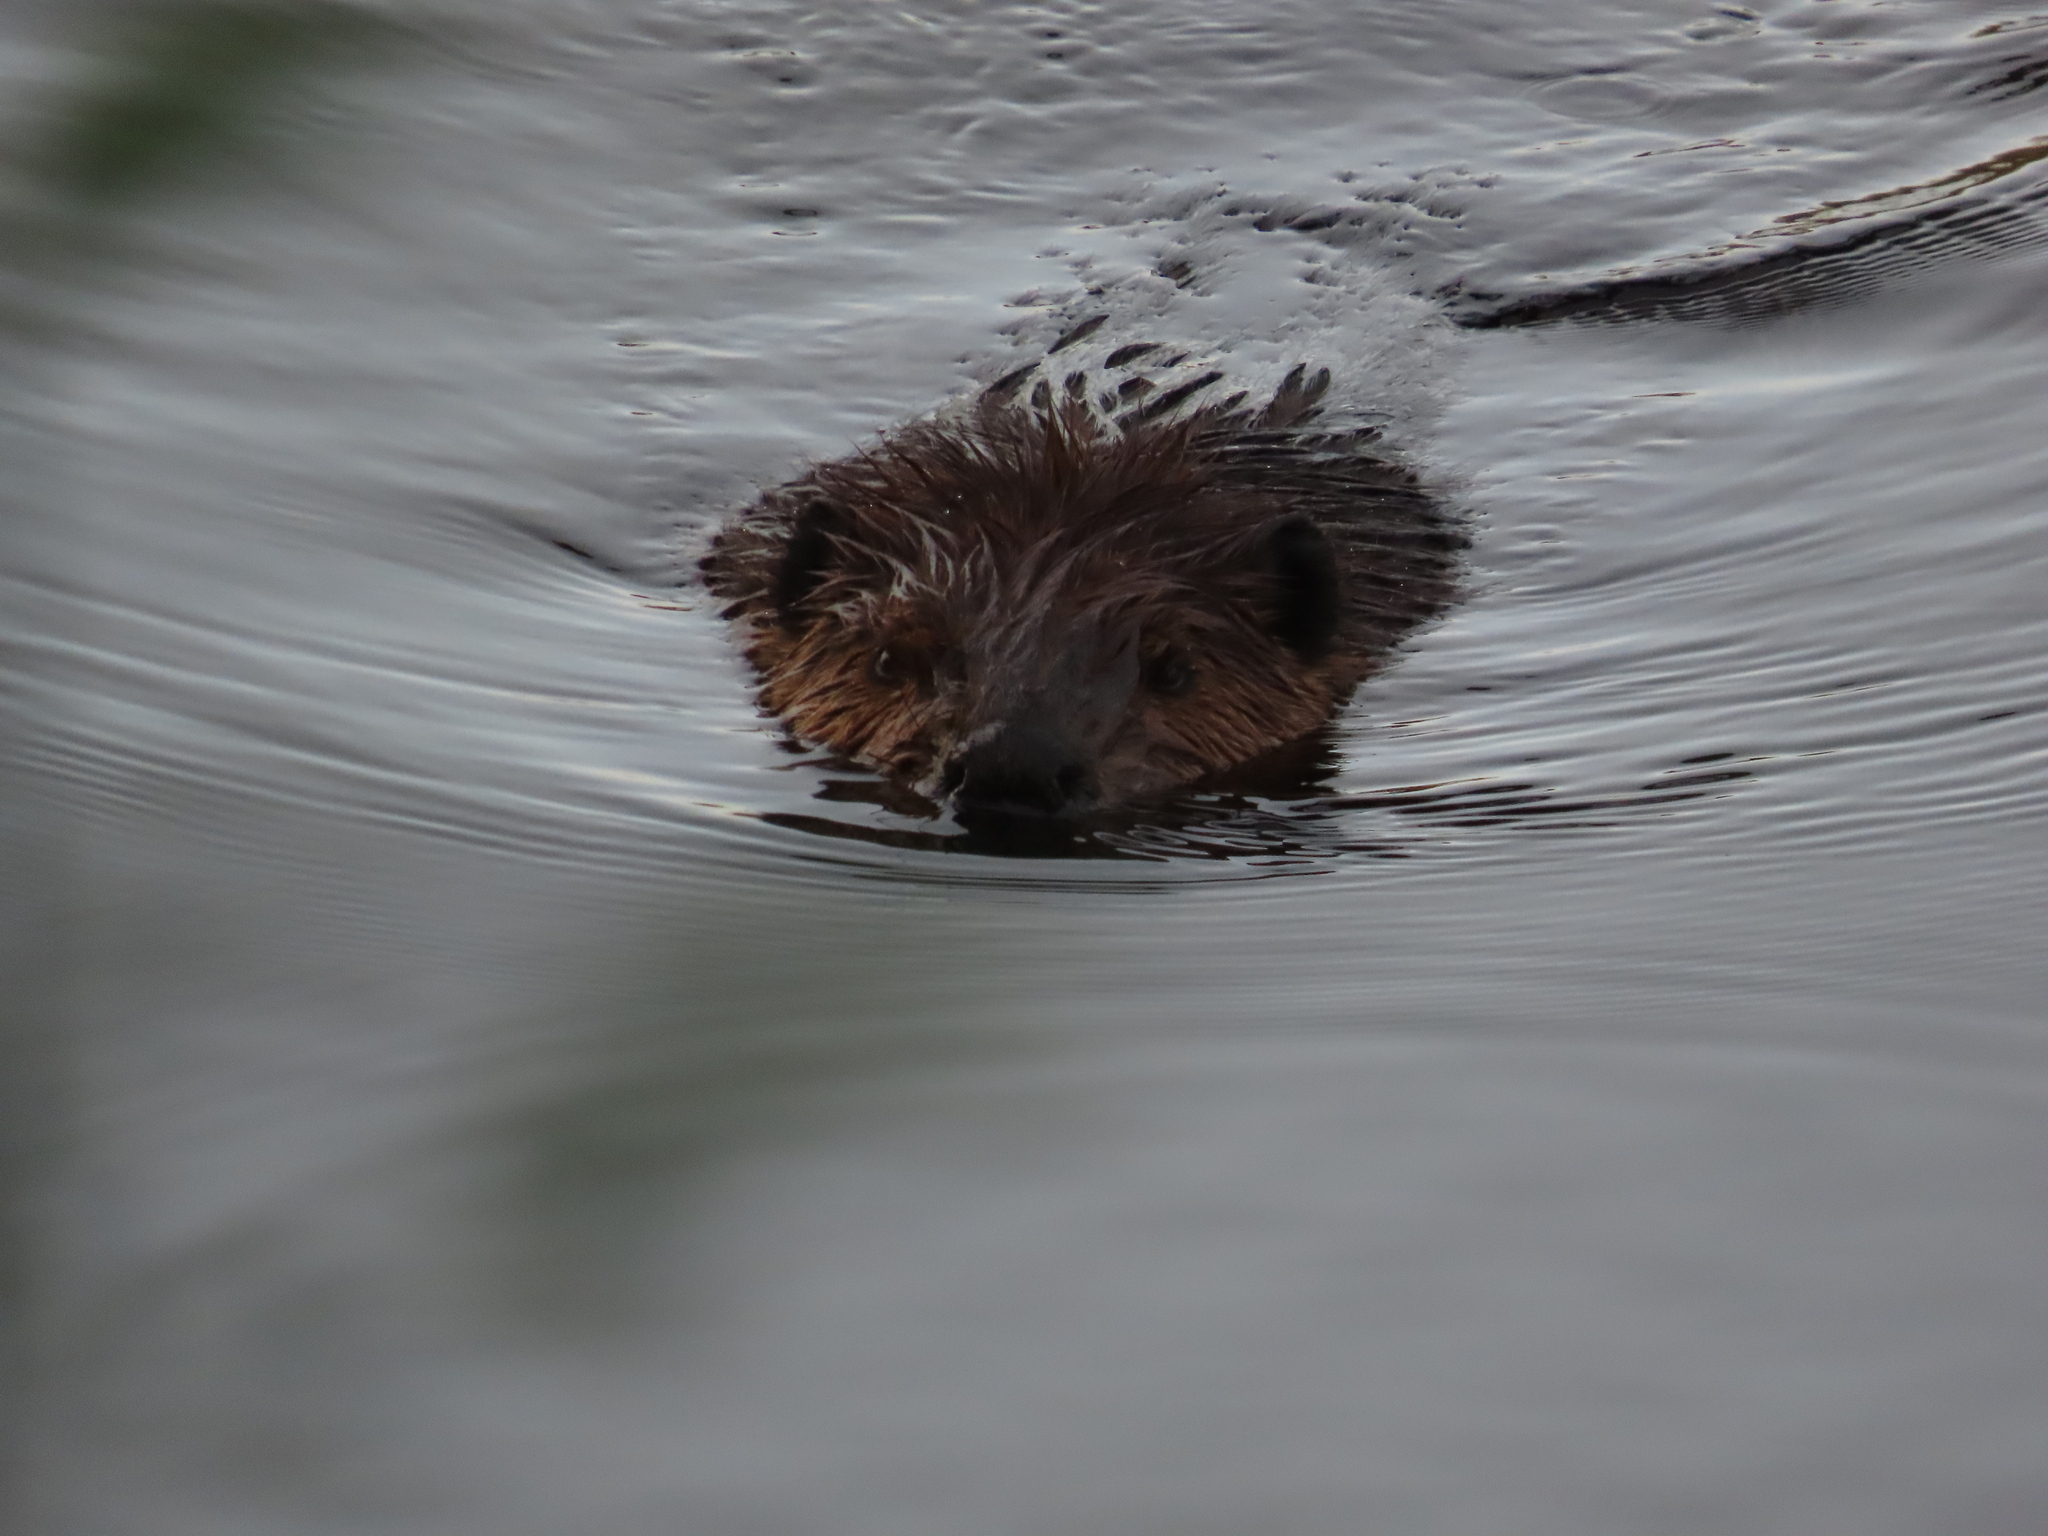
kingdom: Animalia
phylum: Chordata
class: Mammalia
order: Rodentia
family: Castoridae
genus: Castor
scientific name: Castor canadensis
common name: American beaver
